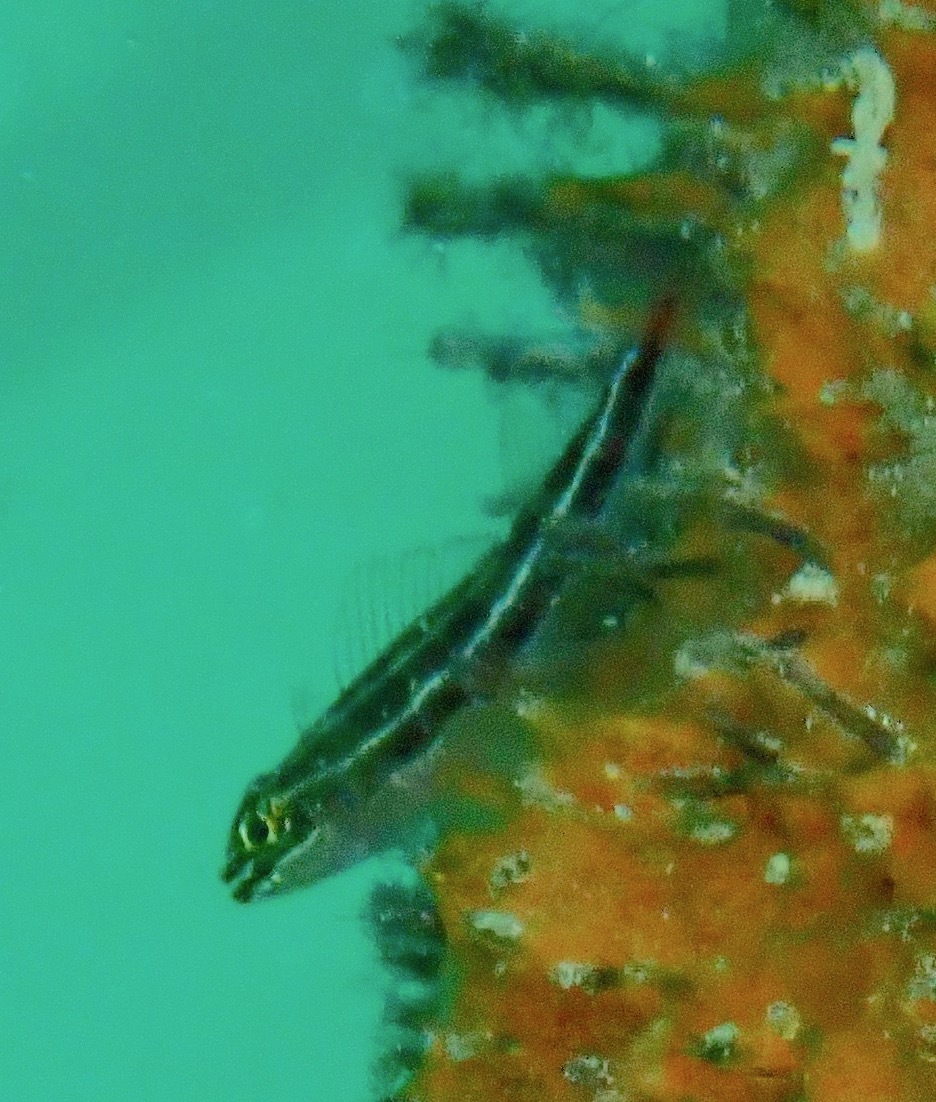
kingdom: Animalia
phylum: Chordata
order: Perciformes
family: Tripterygiidae
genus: Helcogramma
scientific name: Helcogramma striata
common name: Striped threefin
